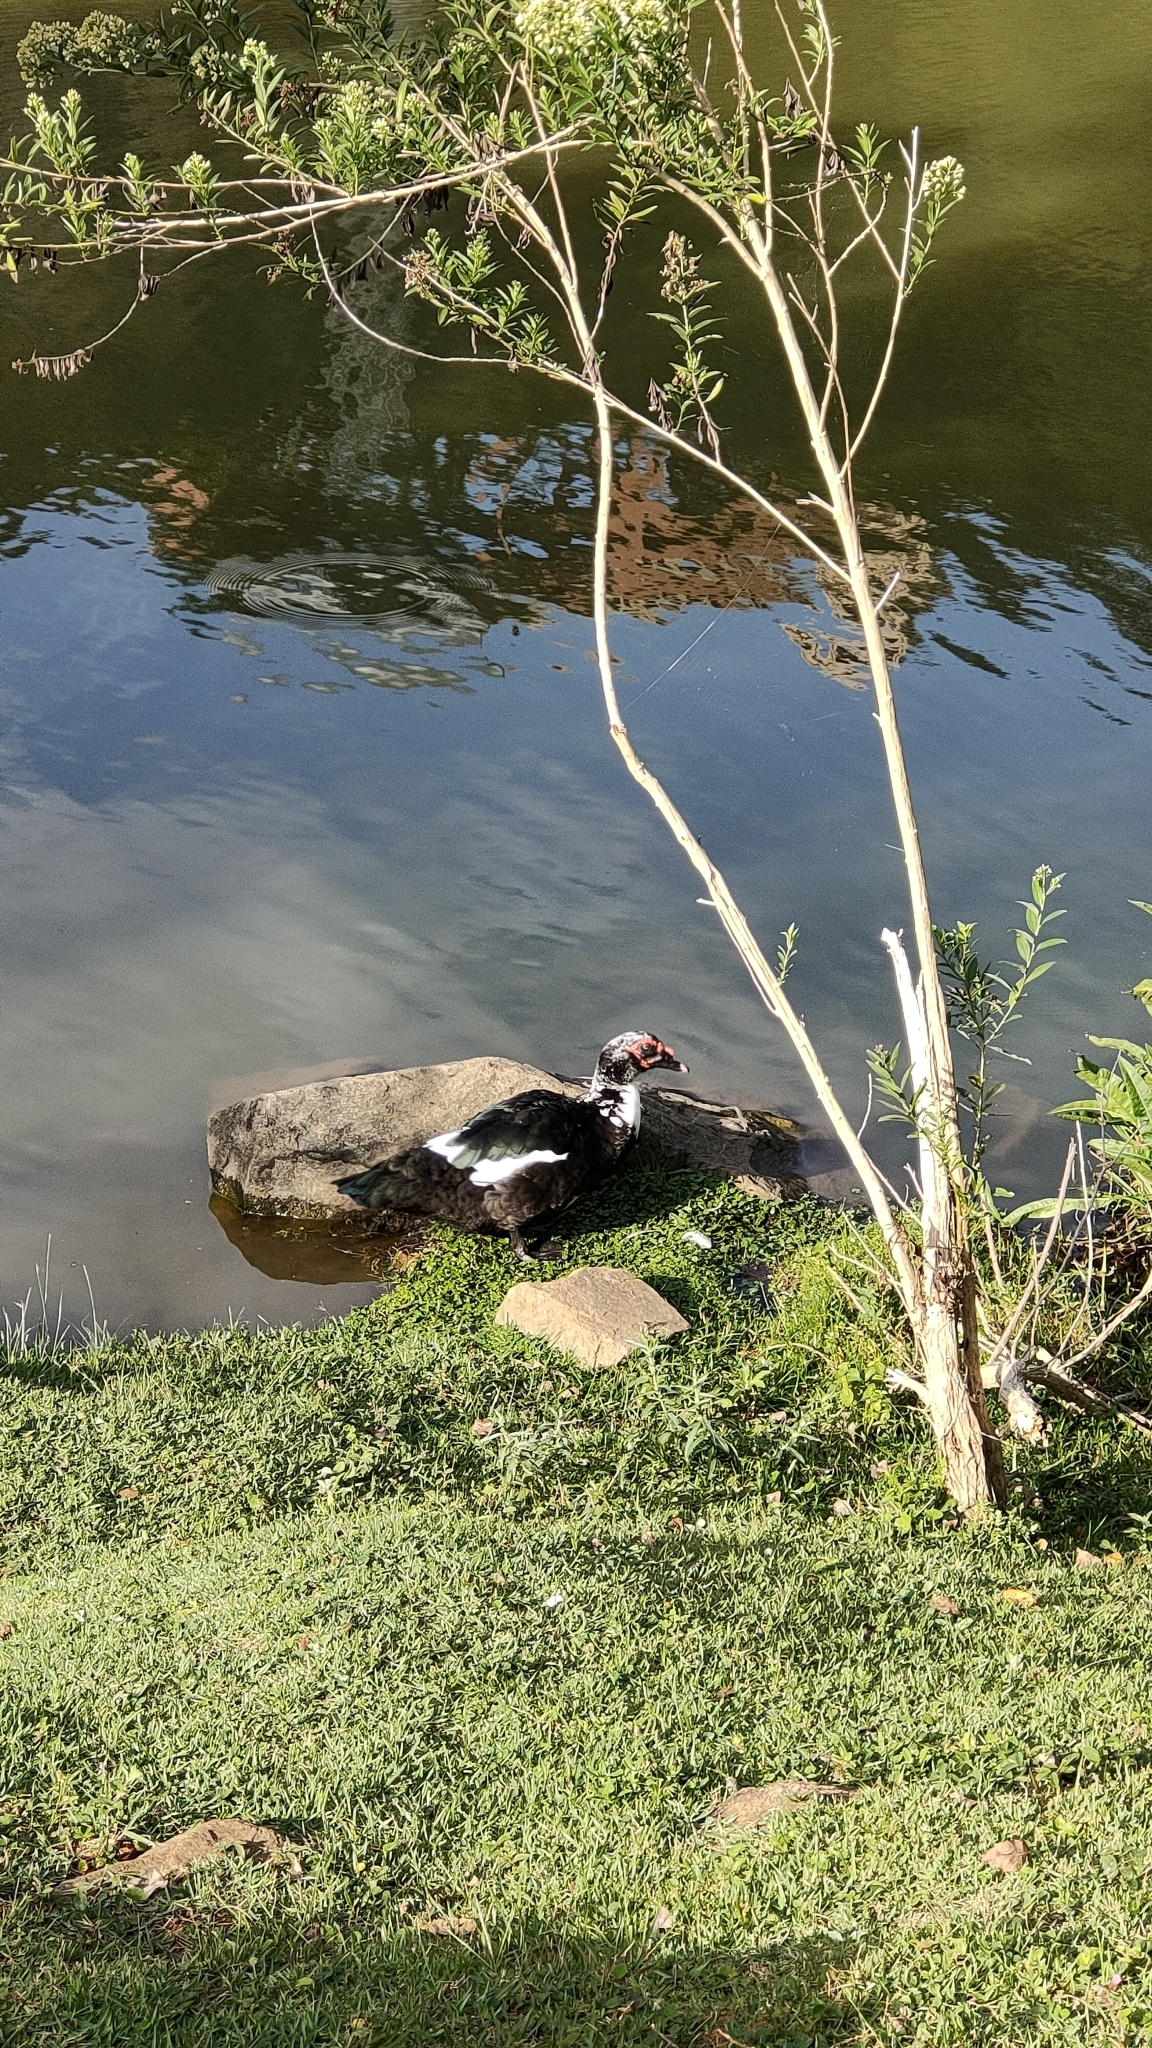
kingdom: Animalia
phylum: Chordata
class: Aves
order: Anseriformes
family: Anatidae
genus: Cairina
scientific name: Cairina moschata
